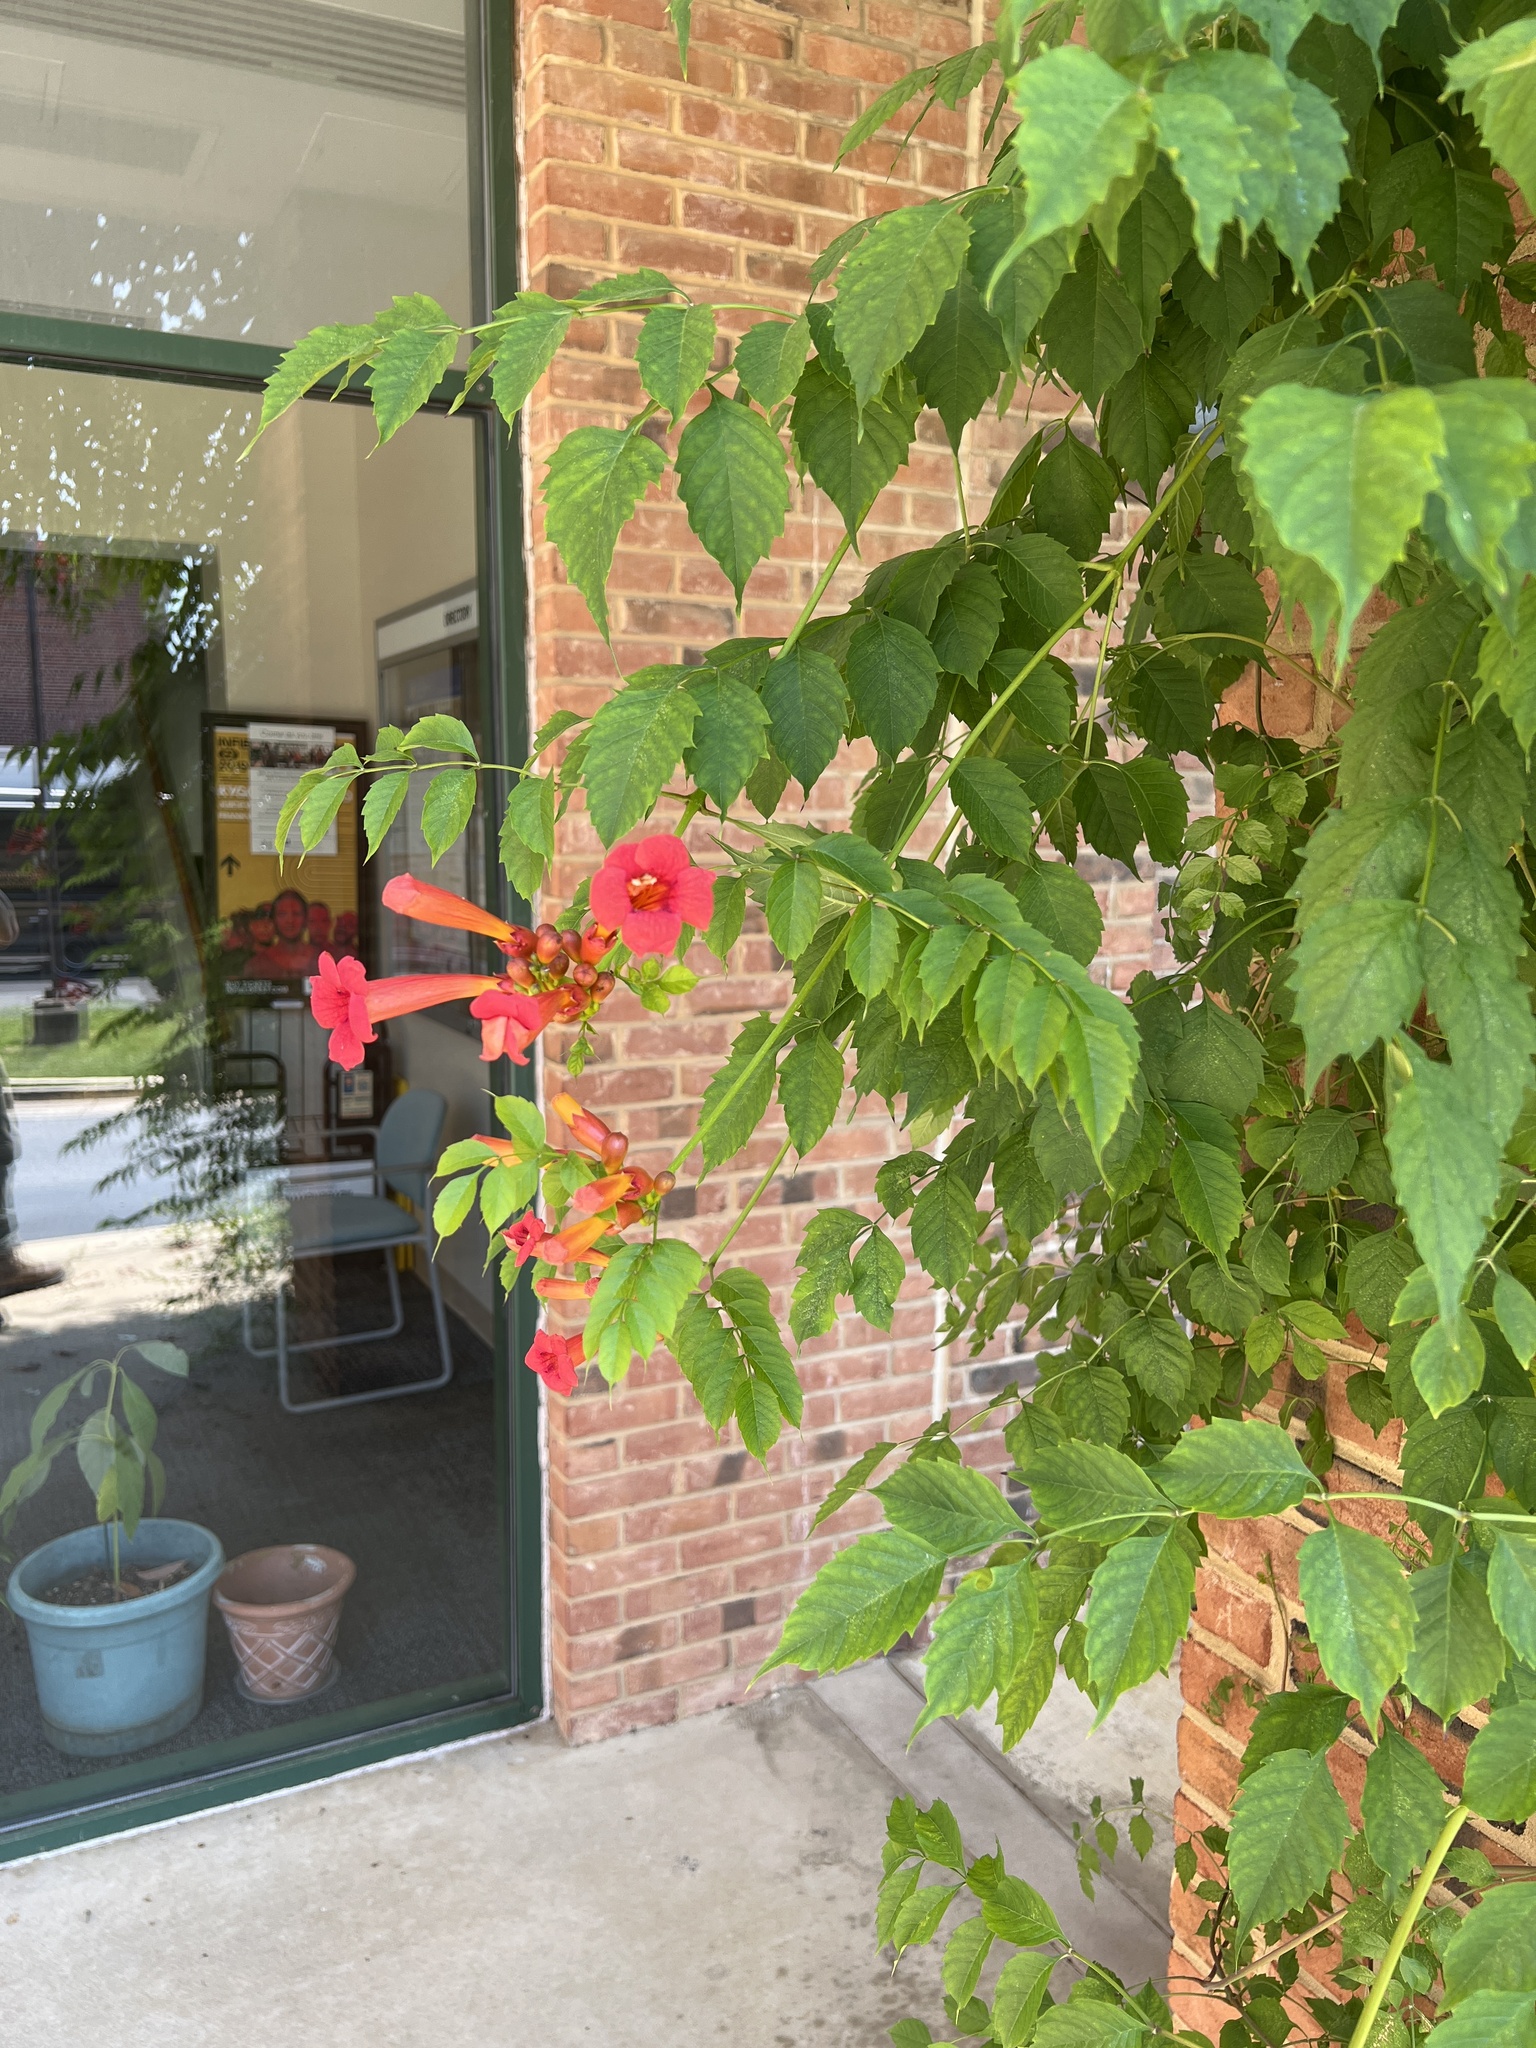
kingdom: Plantae
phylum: Tracheophyta
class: Magnoliopsida
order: Lamiales
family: Bignoniaceae
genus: Campsis
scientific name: Campsis radicans
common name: Trumpet-creeper
